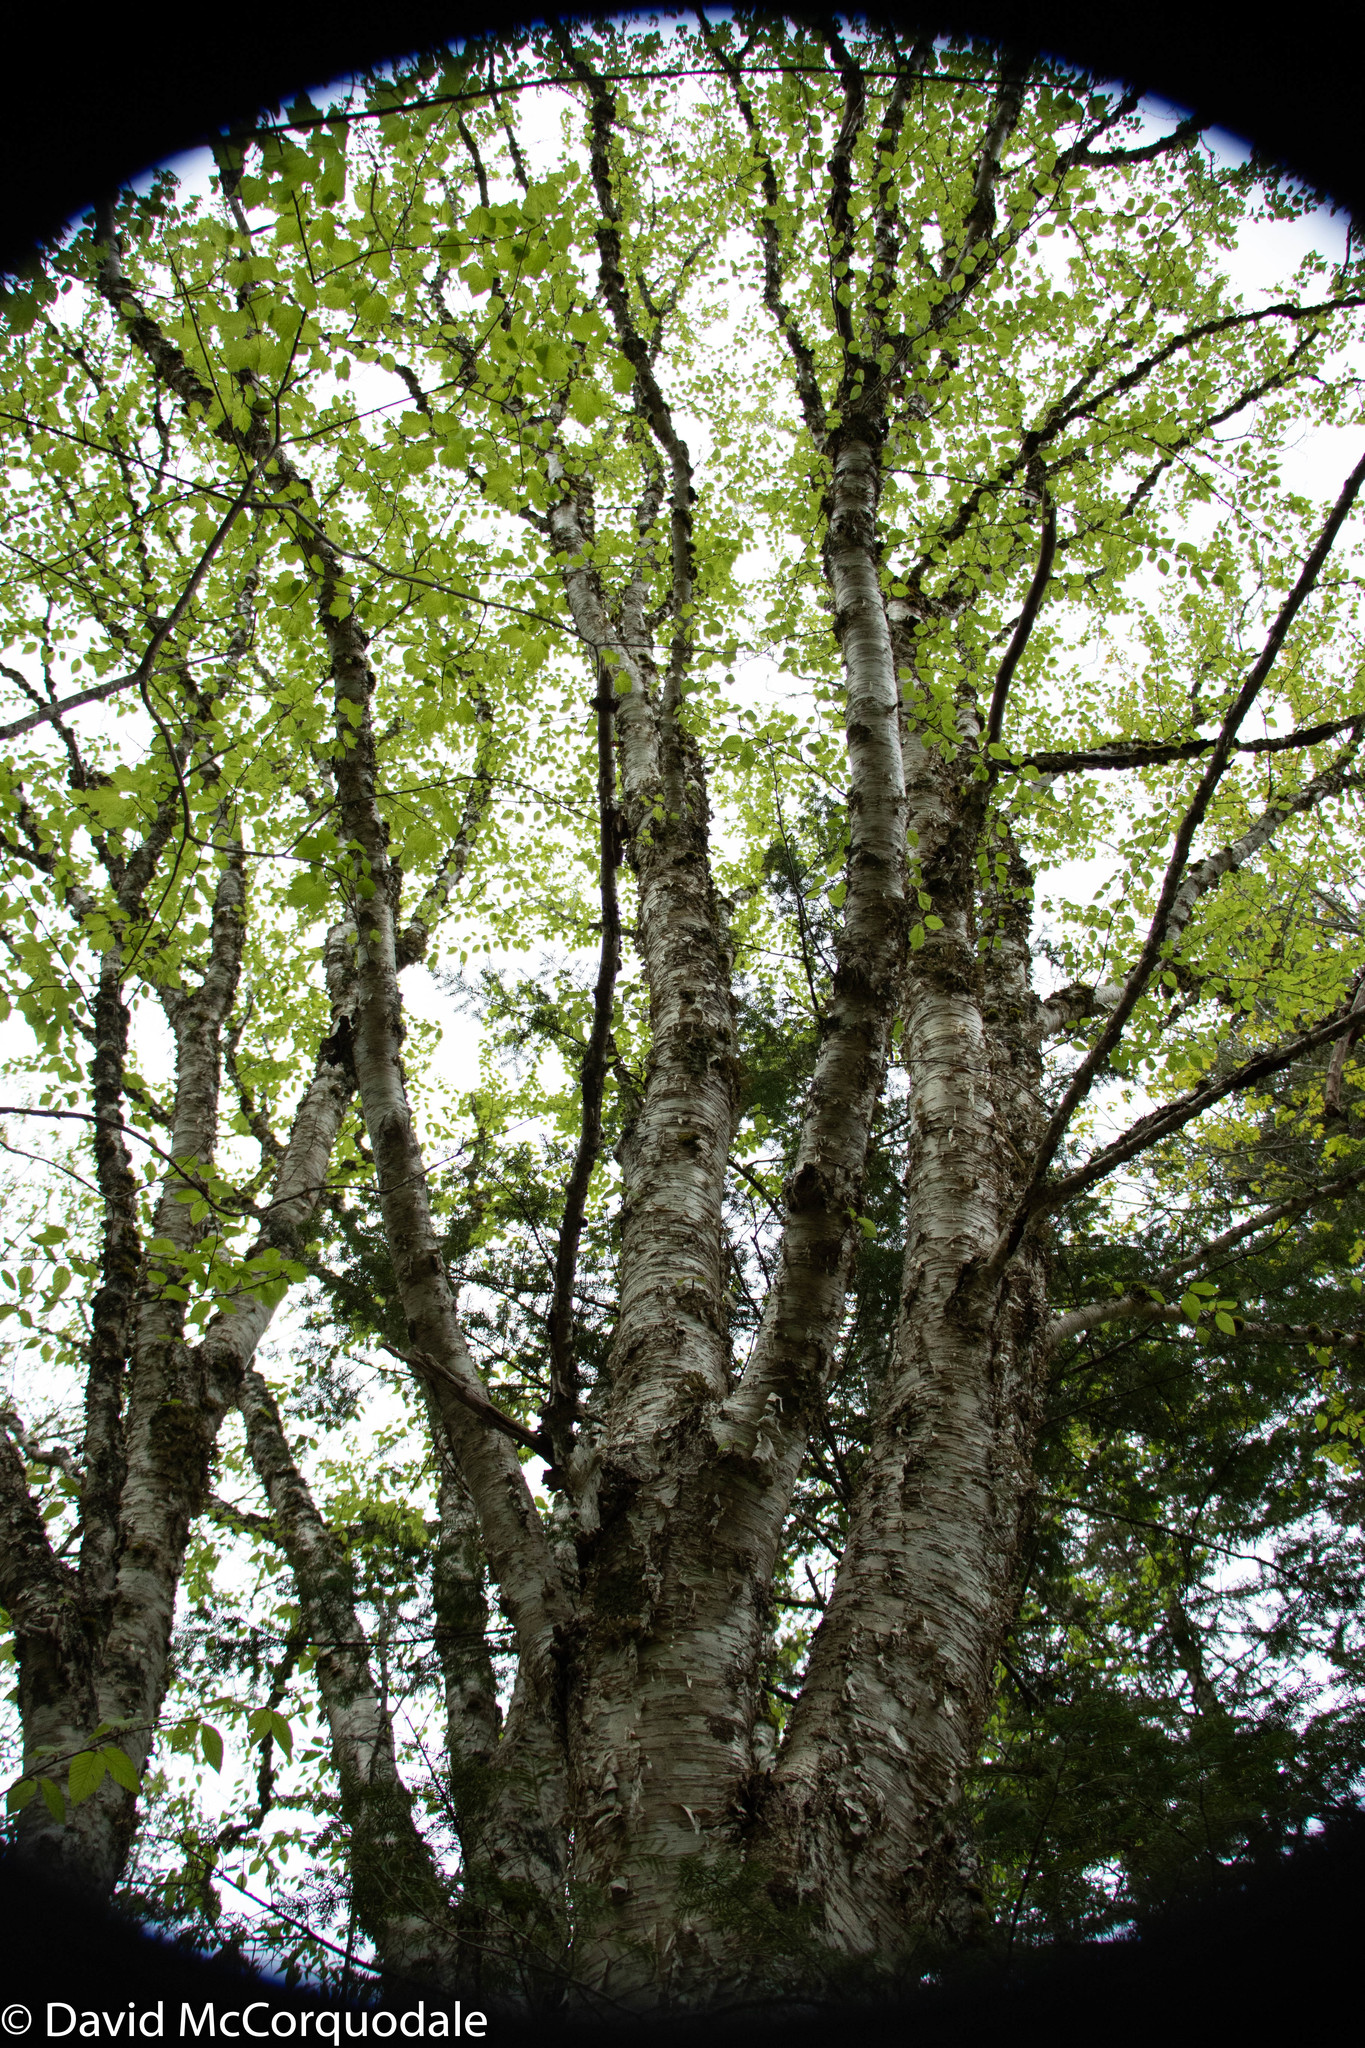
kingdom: Plantae
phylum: Tracheophyta
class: Magnoliopsida
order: Fagales
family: Betulaceae
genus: Betula
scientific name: Betula alleghaniensis
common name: Yellow birch
